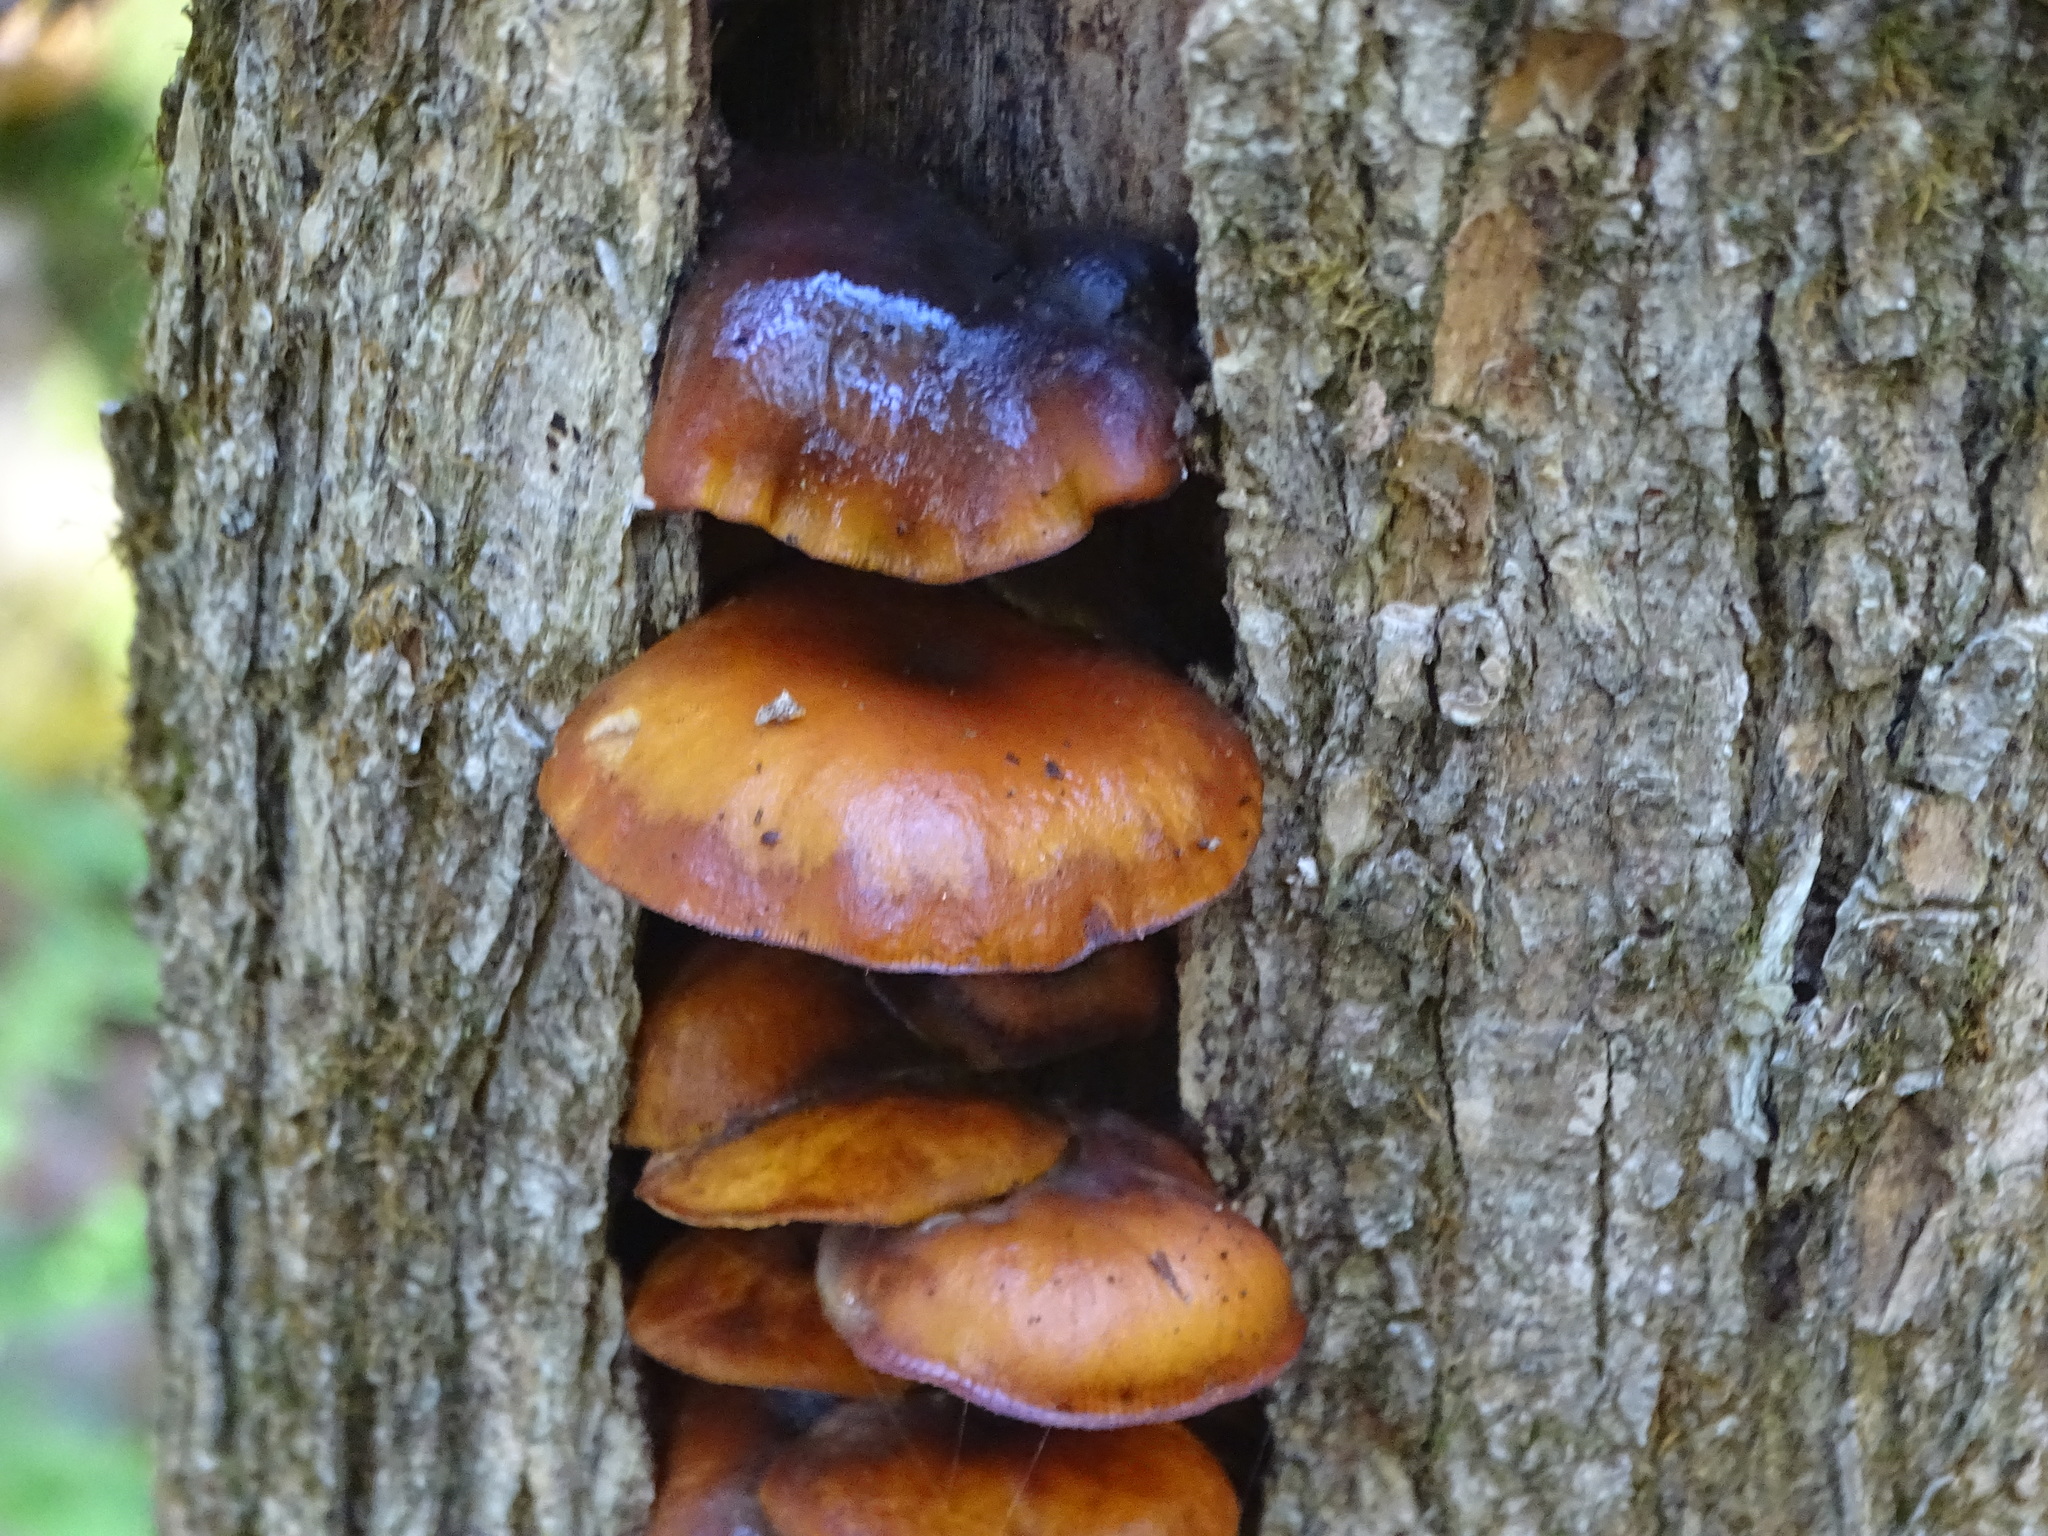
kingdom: Fungi
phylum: Basidiomycota
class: Agaricomycetes
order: Agaricales
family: Physalacriaceae
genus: Flammulina
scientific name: Flammulina velutipes
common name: Velvet shank
